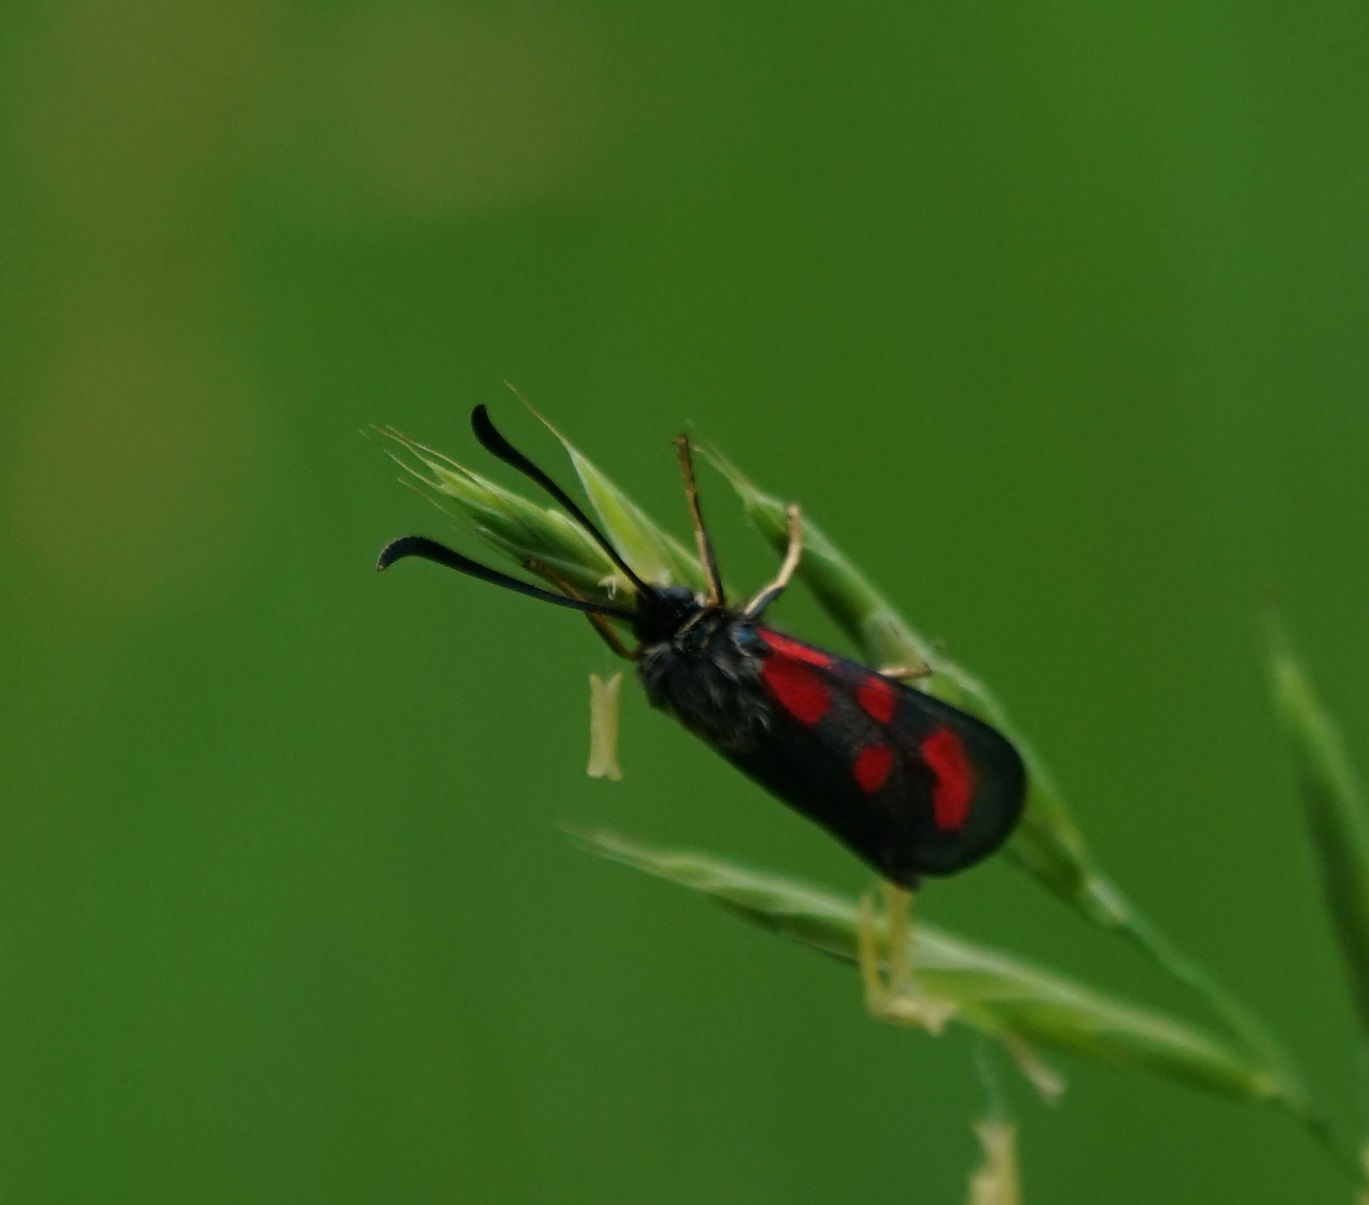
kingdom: Animalia
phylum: Arthropoda
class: Insecta
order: Lepidoptera
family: Zygaenidae
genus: Zygaena
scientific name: Zygaena loti
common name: Slender scotch burnet
